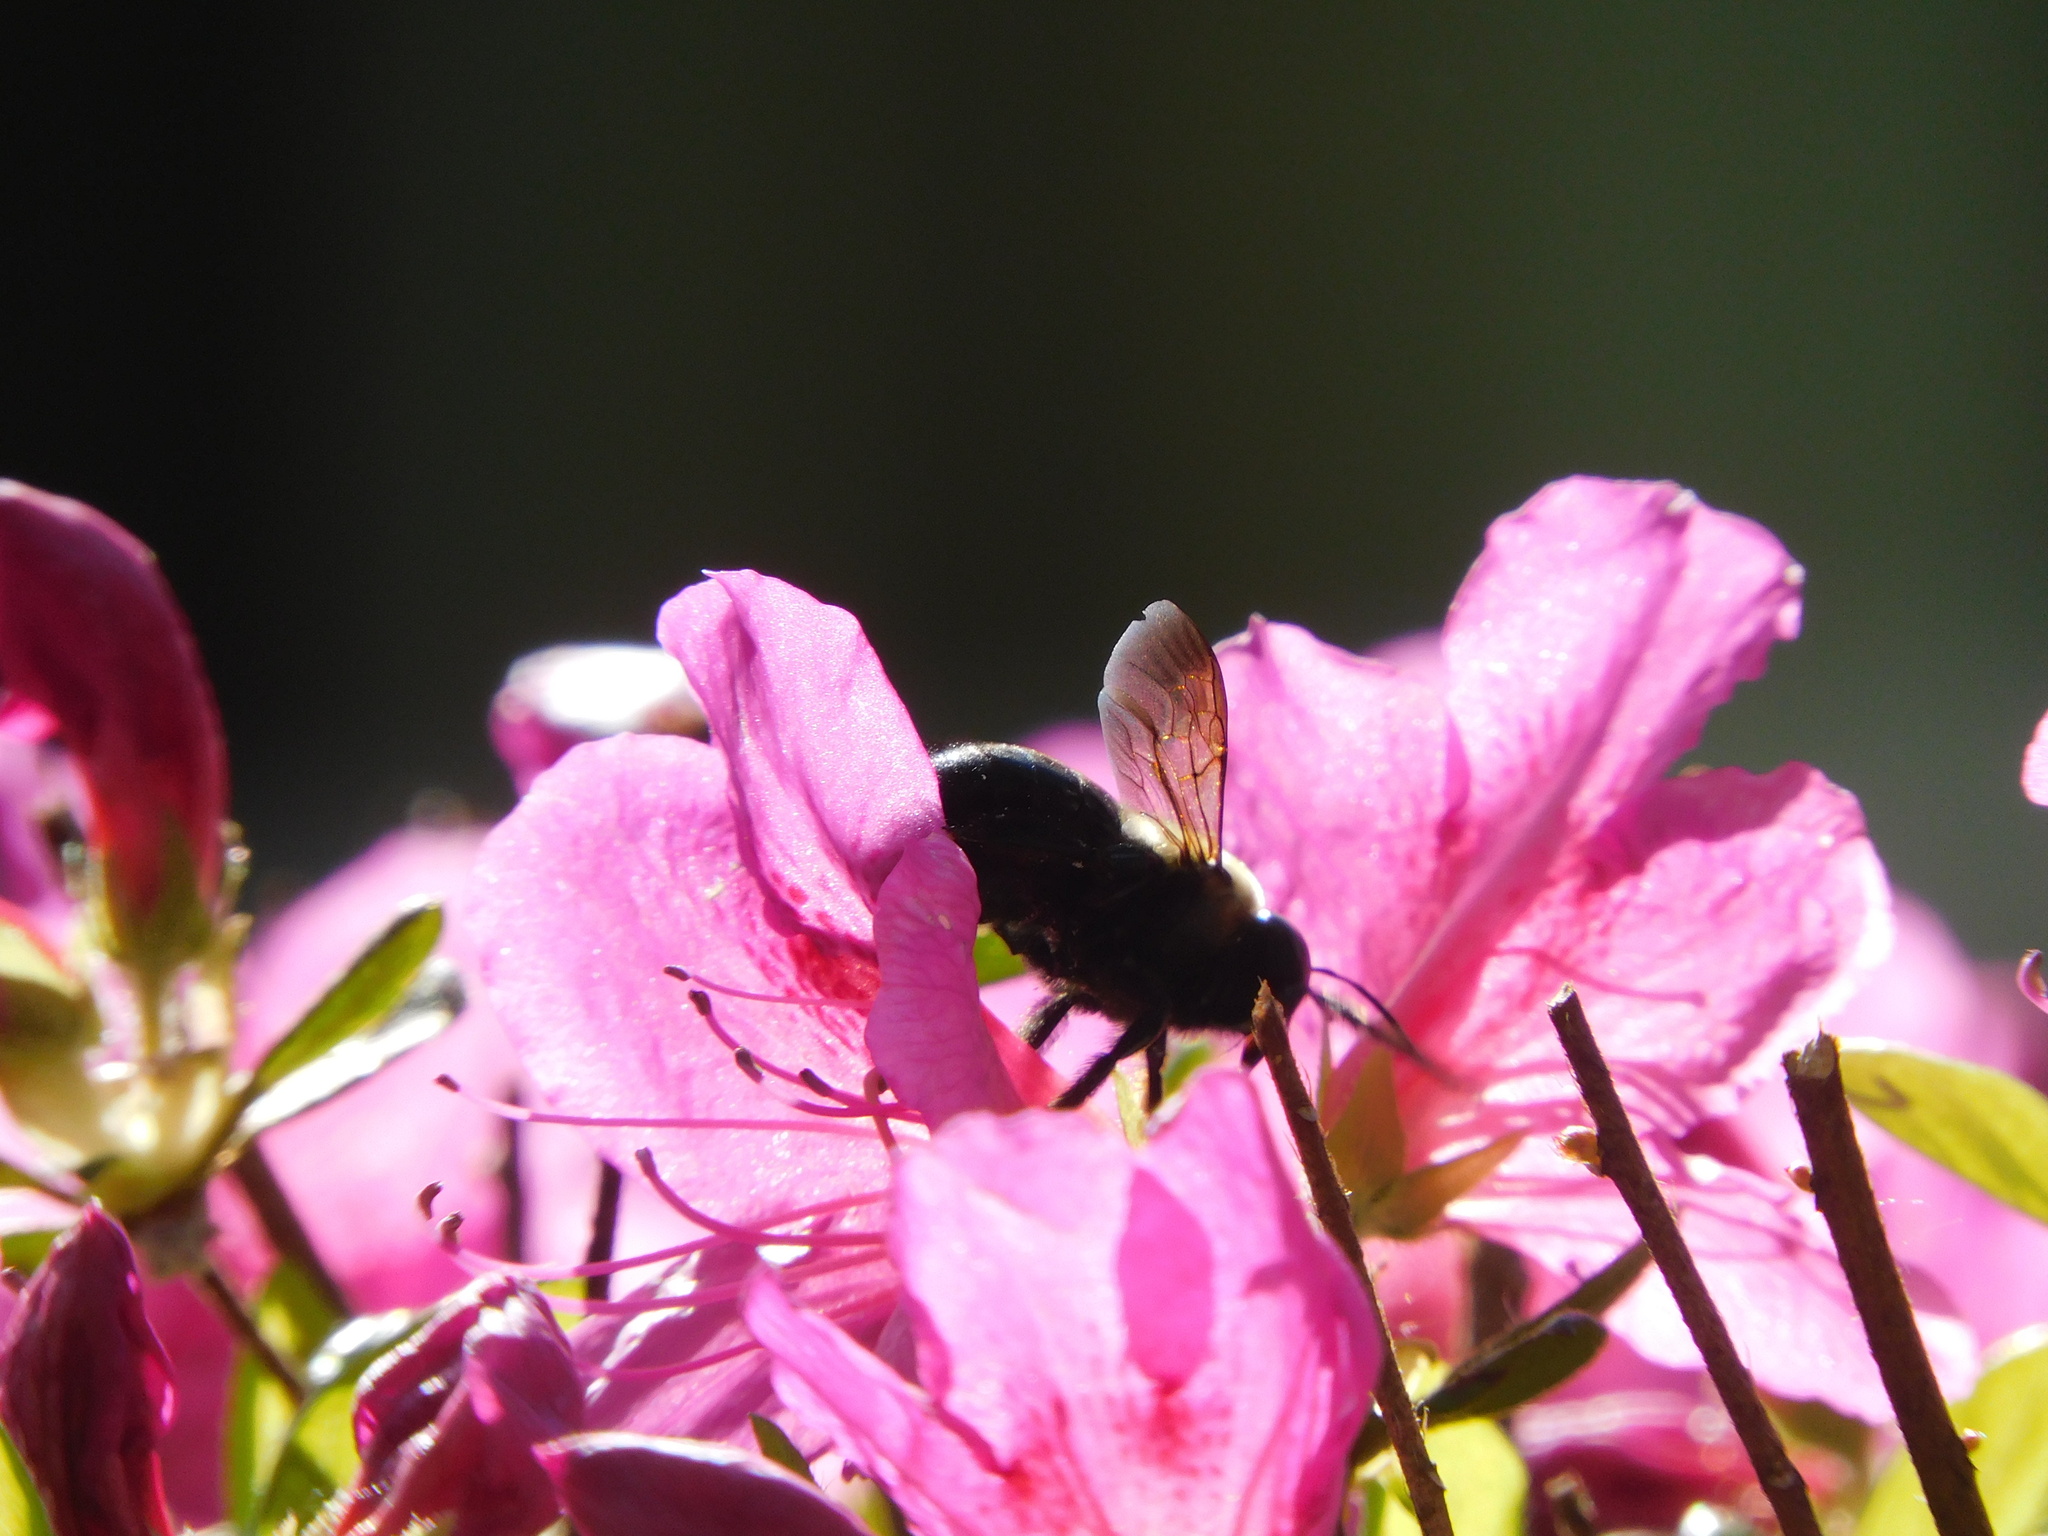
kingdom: Animalia
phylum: Arthropoda
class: Insecta
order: Hymenoptera
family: Apidae
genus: Xylocopa
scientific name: Xylocopa virginica
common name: Carpenter bee
